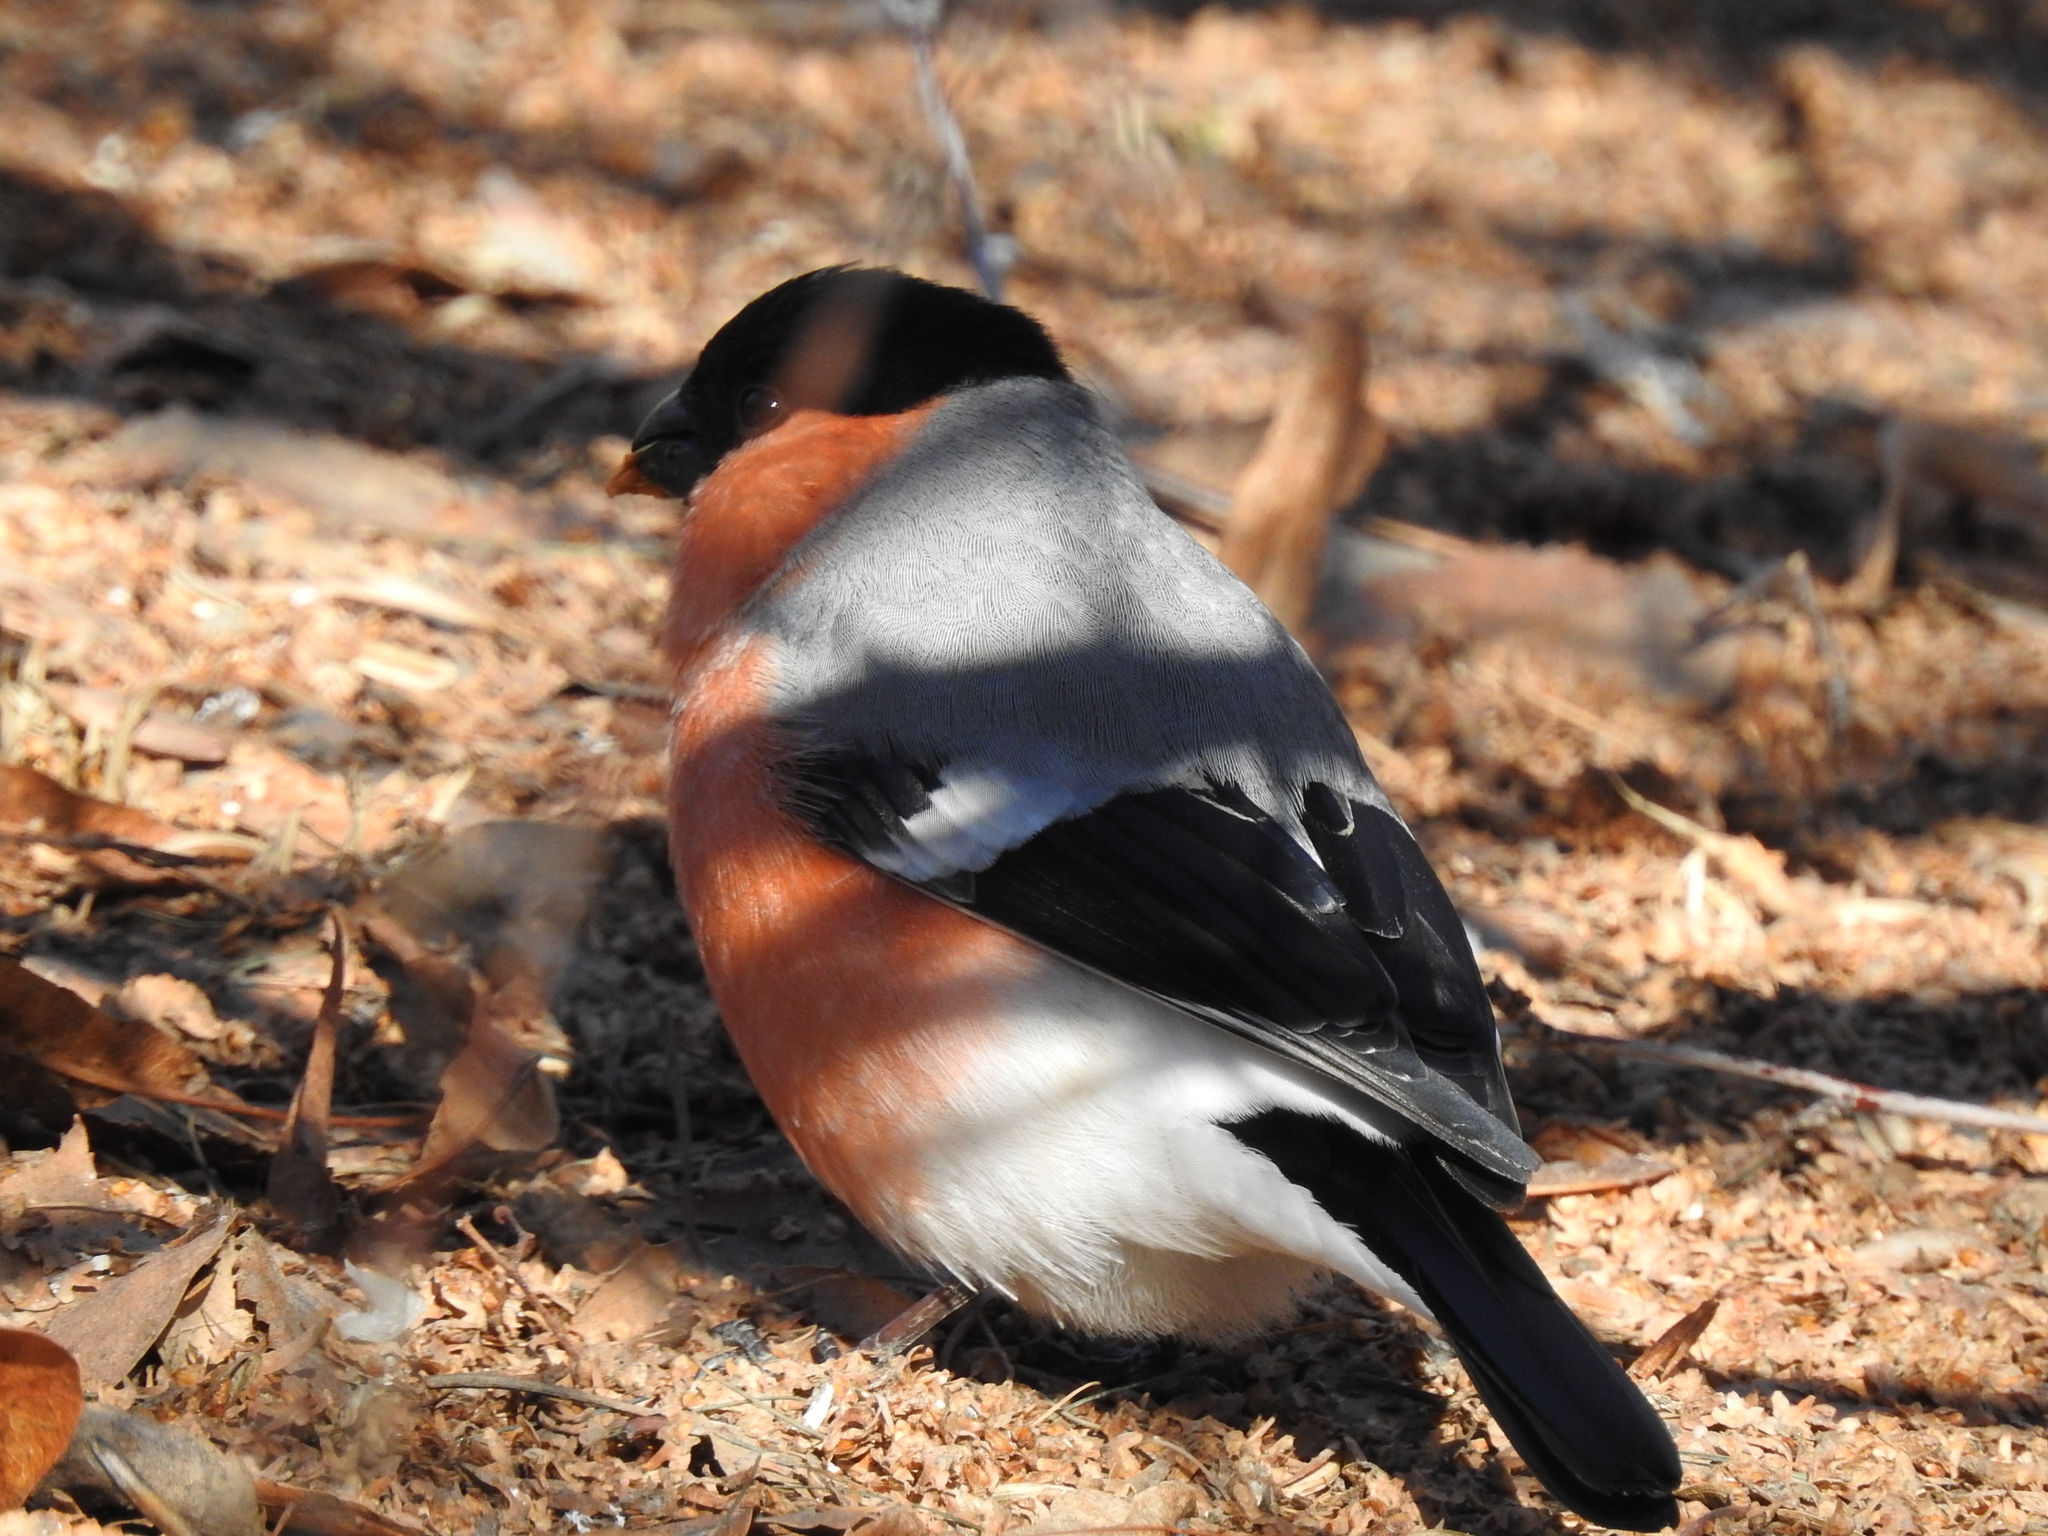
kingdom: Animalia
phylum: Chordata
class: Aves
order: Passeriformes
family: Fringillidae
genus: Pyrrhula
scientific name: Pyrrhula pyrrhula
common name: Eurasian bullfinch
